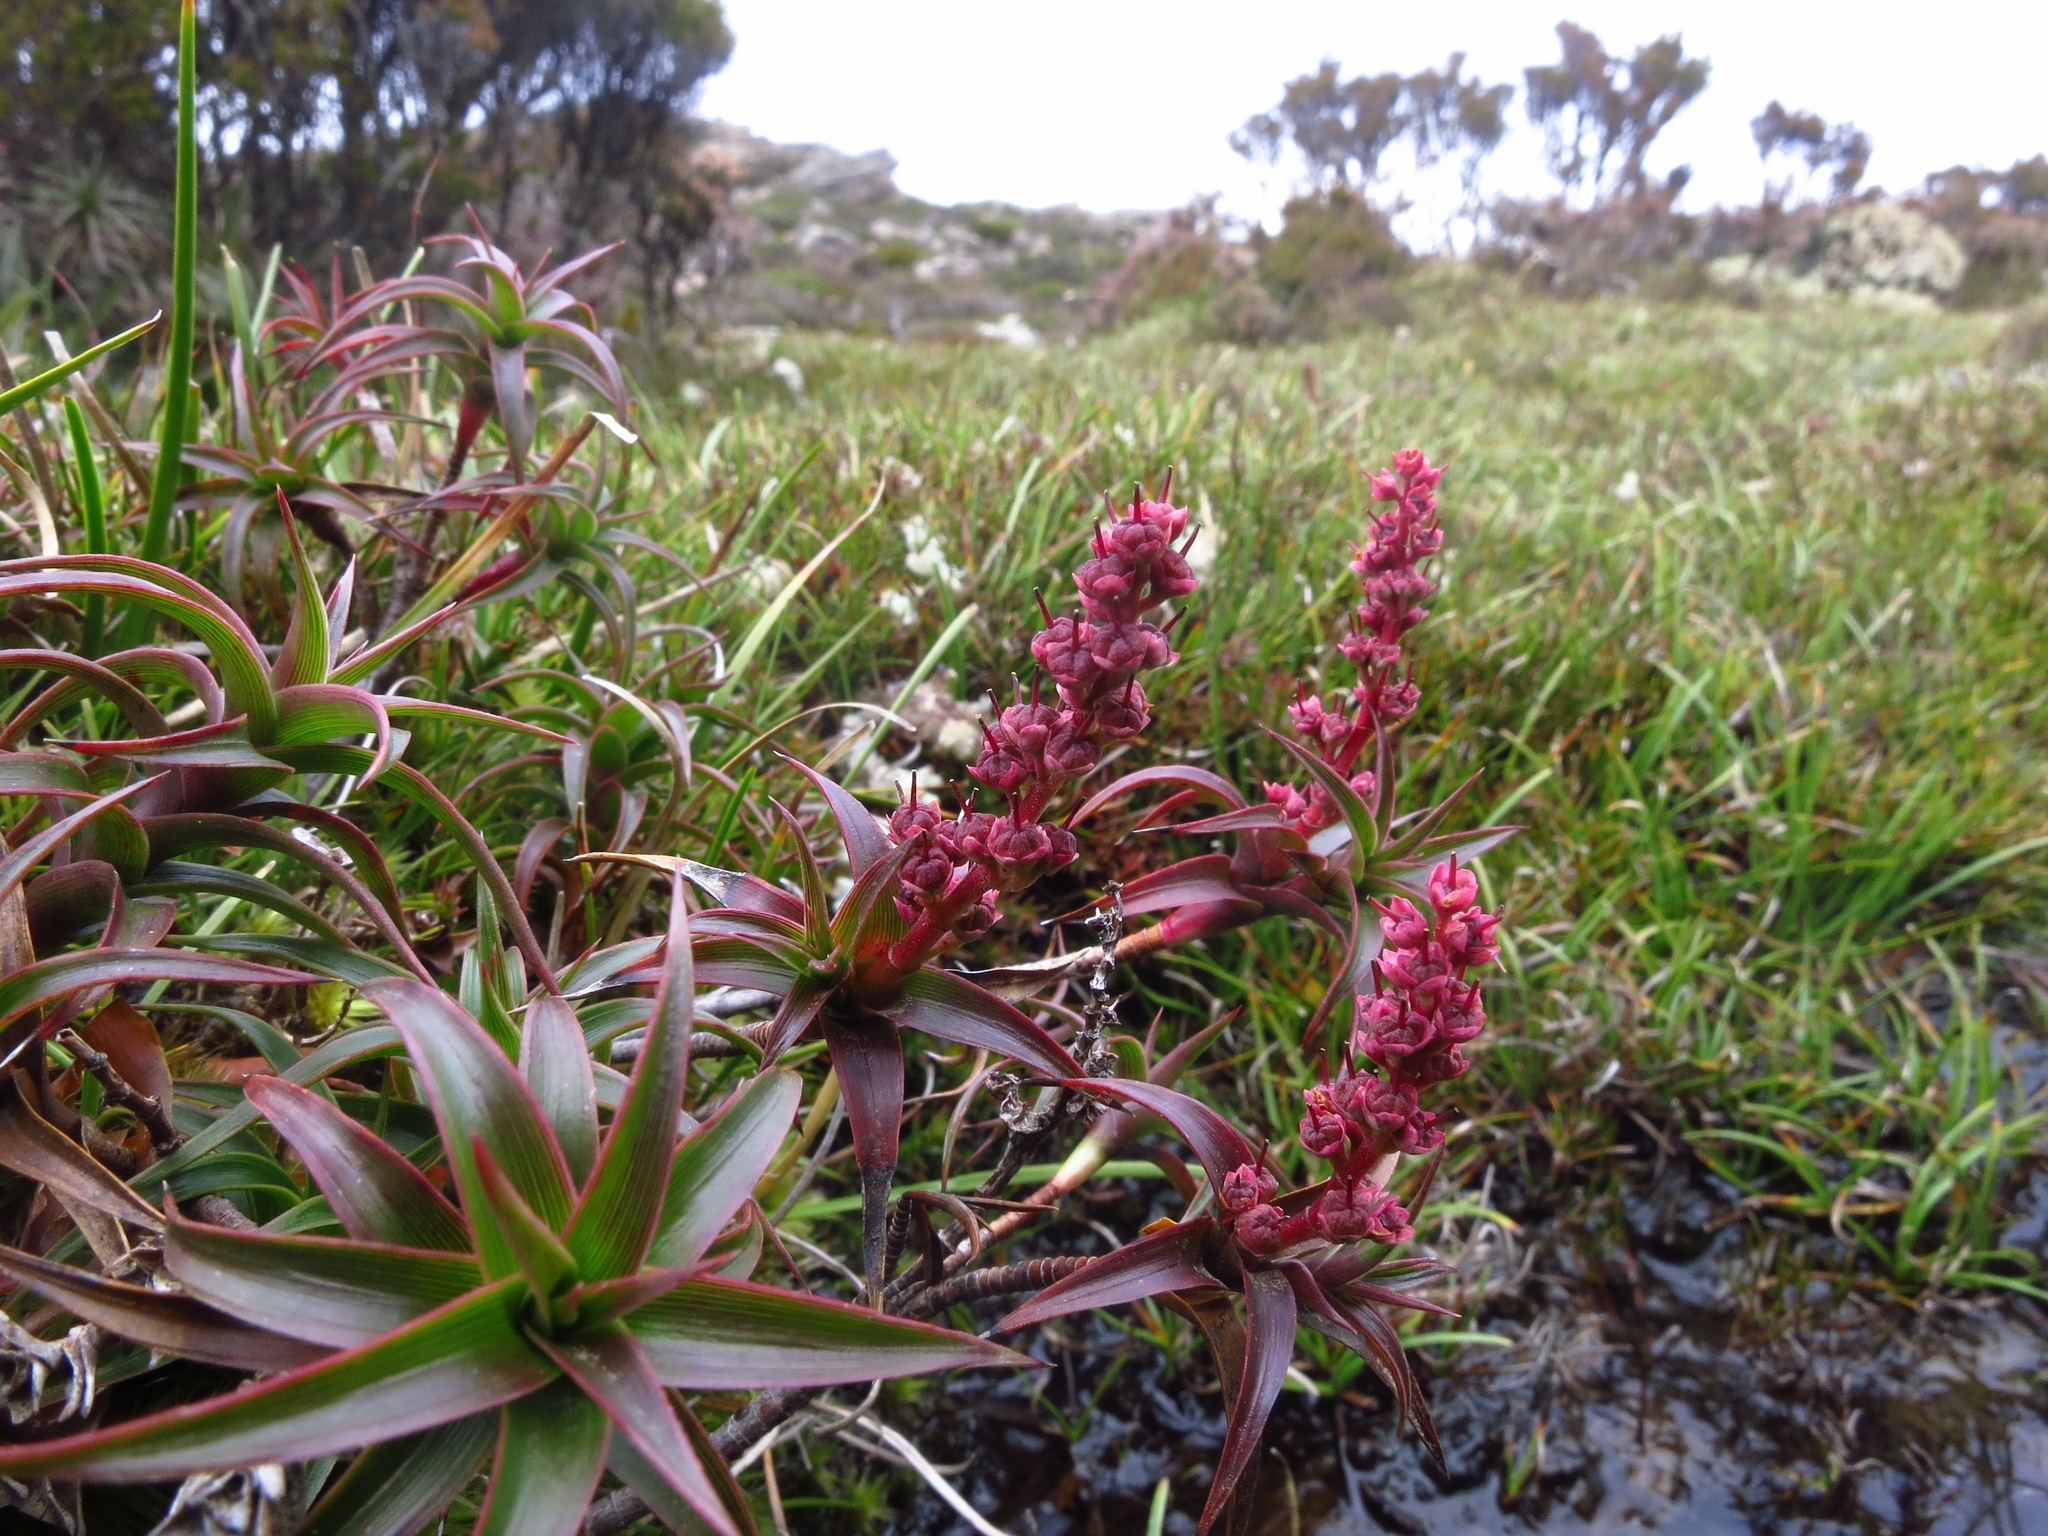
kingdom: Plantae
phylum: Tracheophyta
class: Magnoliopsida
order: Ericales
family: Ericaceae
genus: Dracophyllum
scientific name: Dracophyllum gunnii
